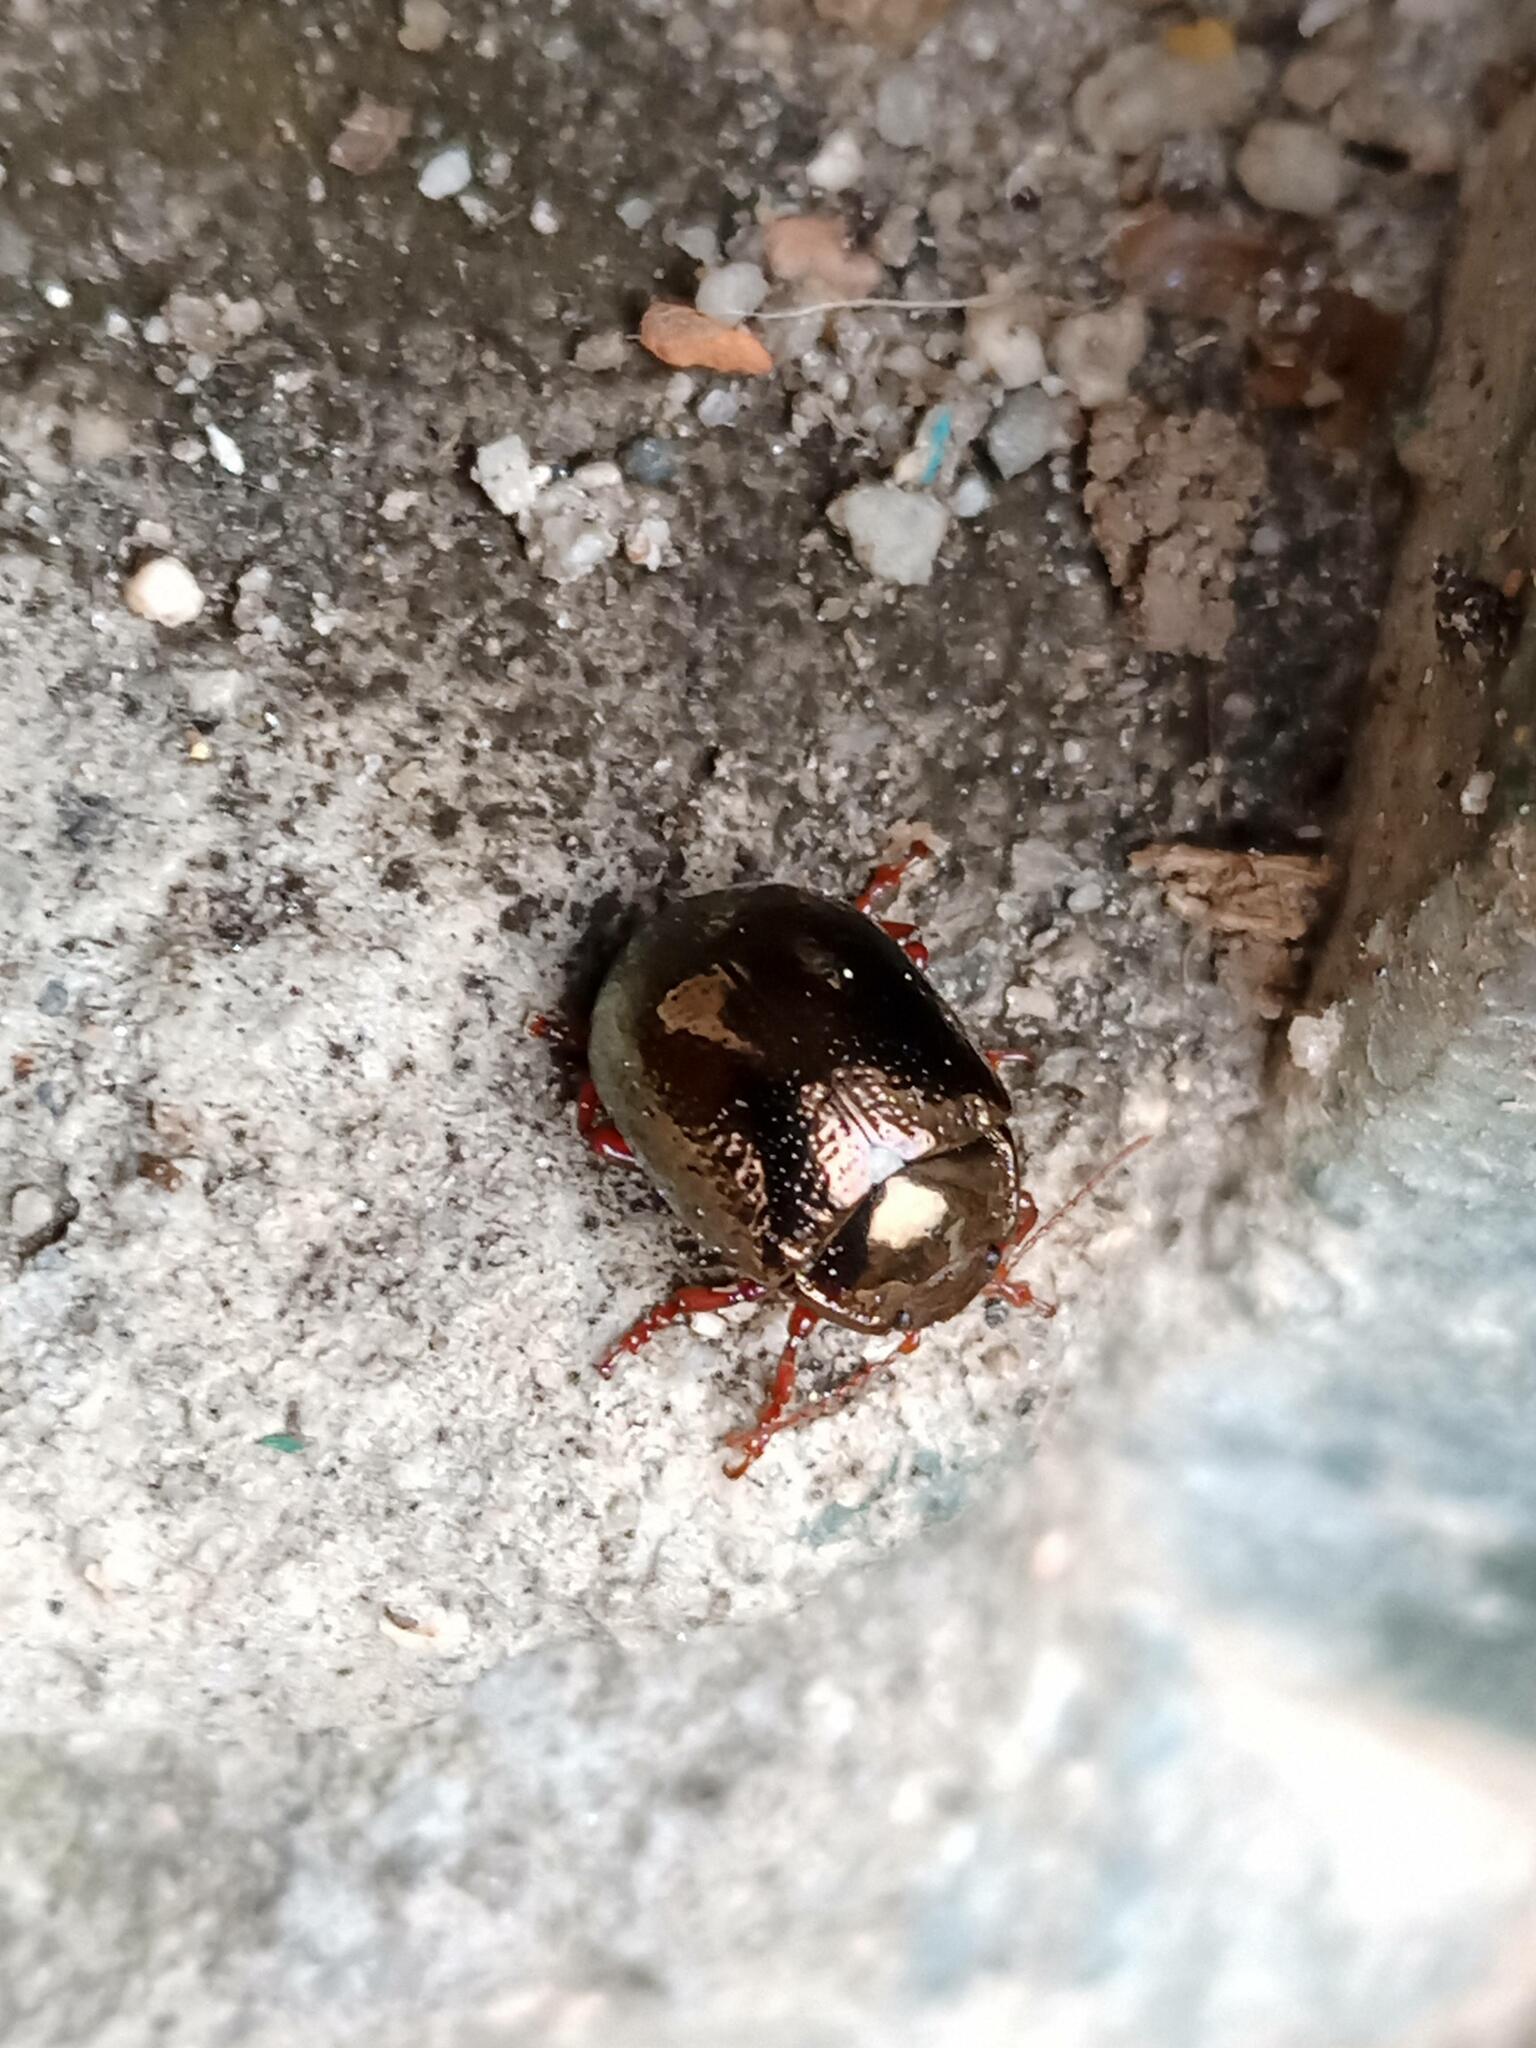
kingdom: Animalia
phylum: Arthropoda
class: Insecta
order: Coleoptera
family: Chrysomelidae
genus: Chrysolina
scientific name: Chrysolina bankii
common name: Leaf beetle
